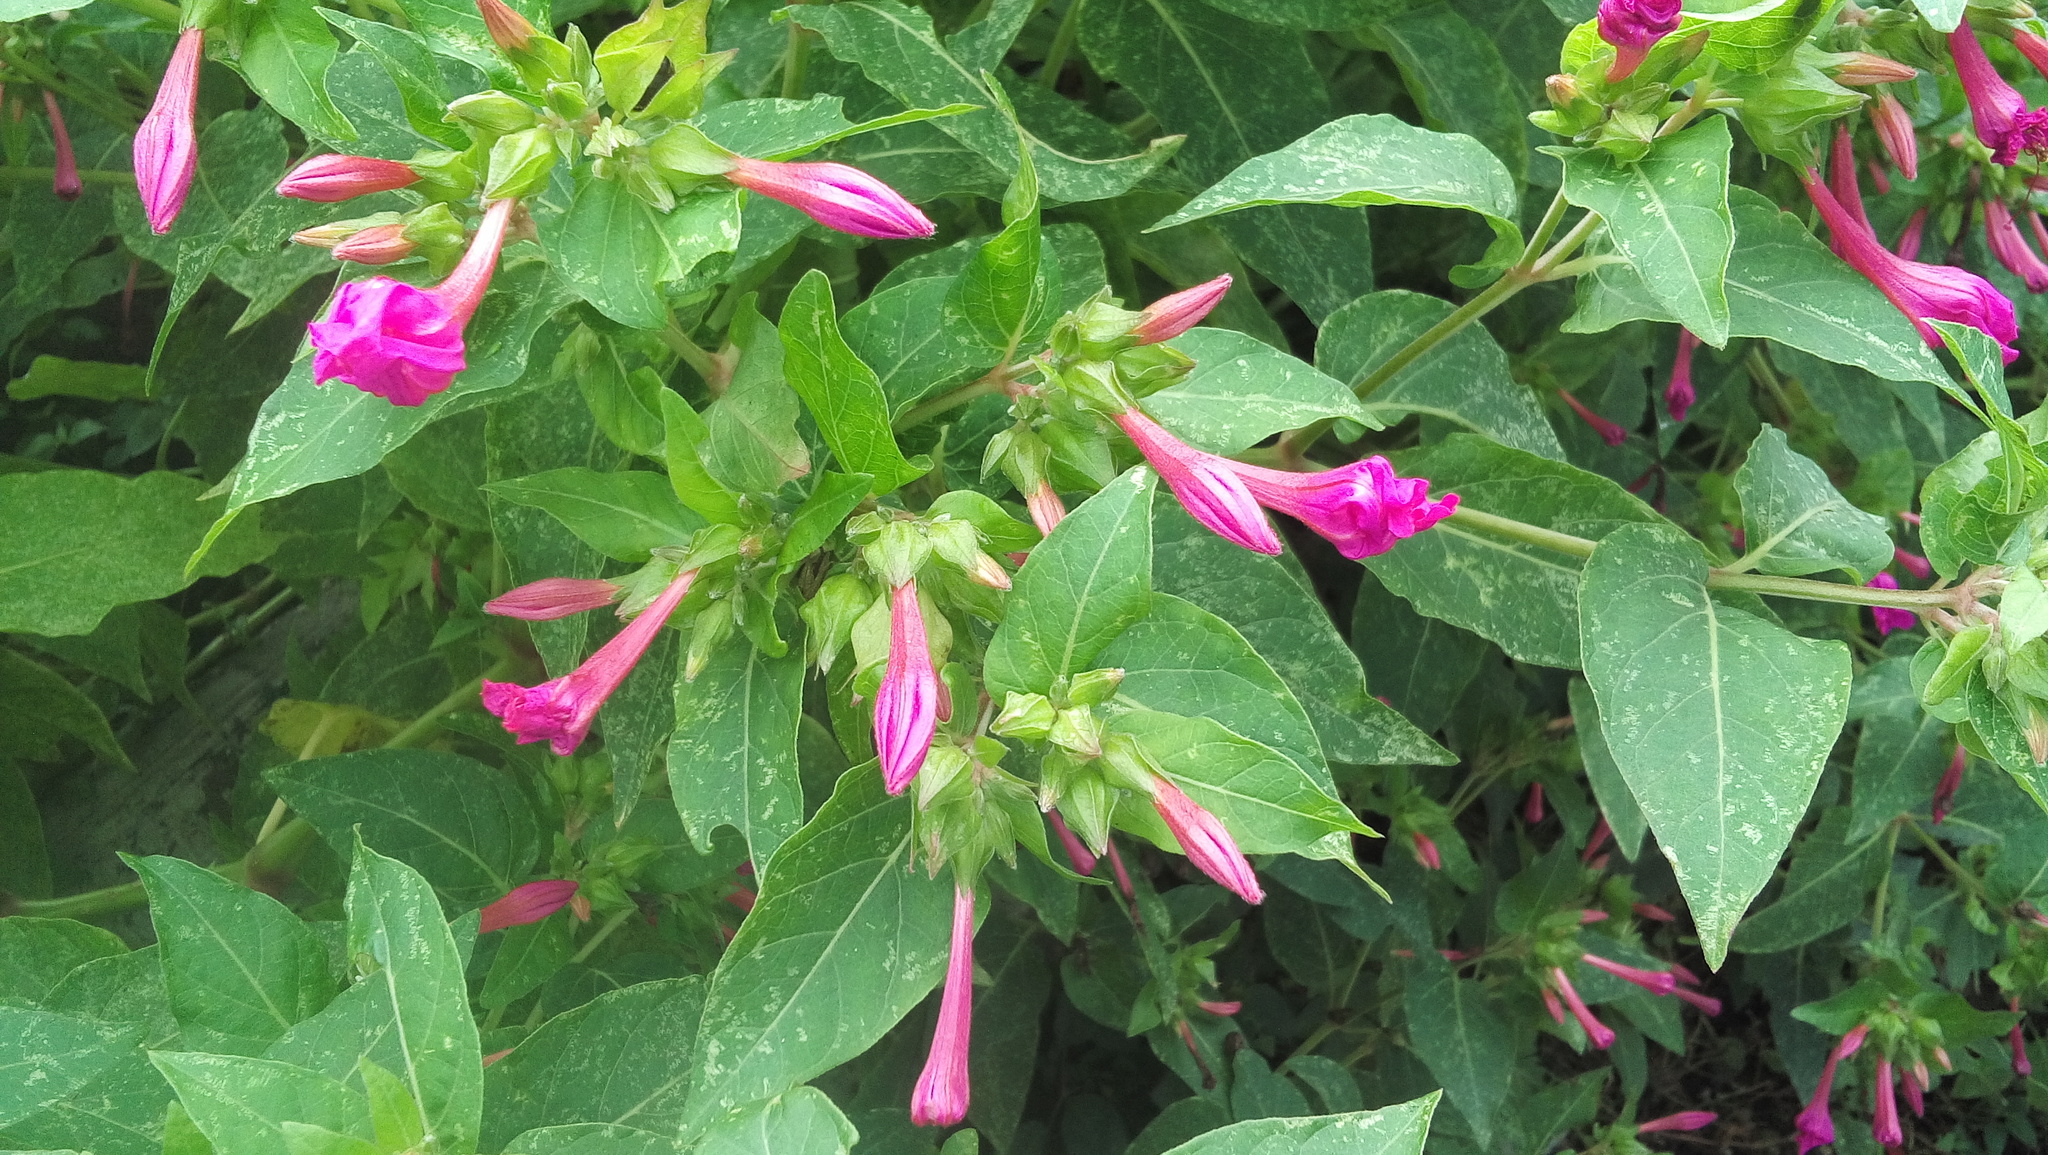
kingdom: Plantae
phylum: Tracheophyta
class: Magnoliopsida
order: Caryophyllales
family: Nyctaginaceae
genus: Mirabilis
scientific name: Mirabilis jalapa
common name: Marvel-of-peru
